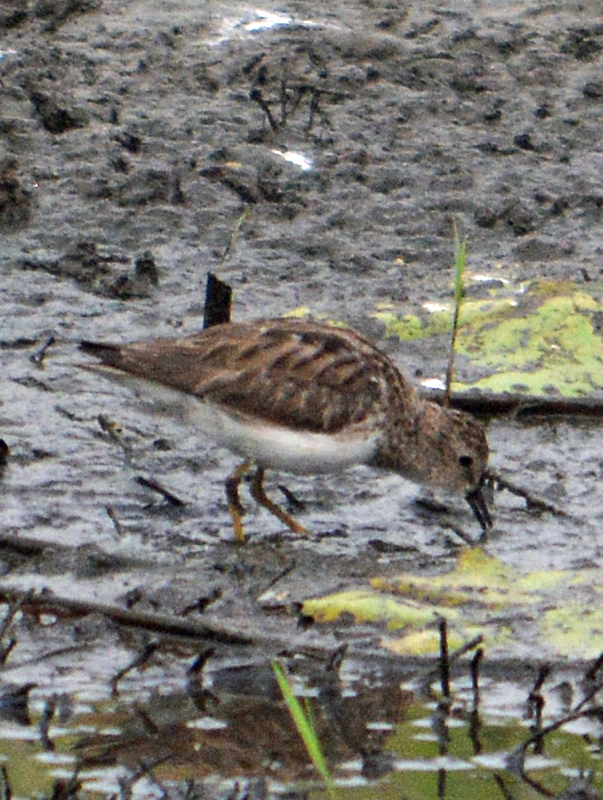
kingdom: Animalia
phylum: Chordata
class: Aves
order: Charadriiformes
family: Scolopacidae
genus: Calidris
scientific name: Calidris minutilla
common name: Least sandpiper
